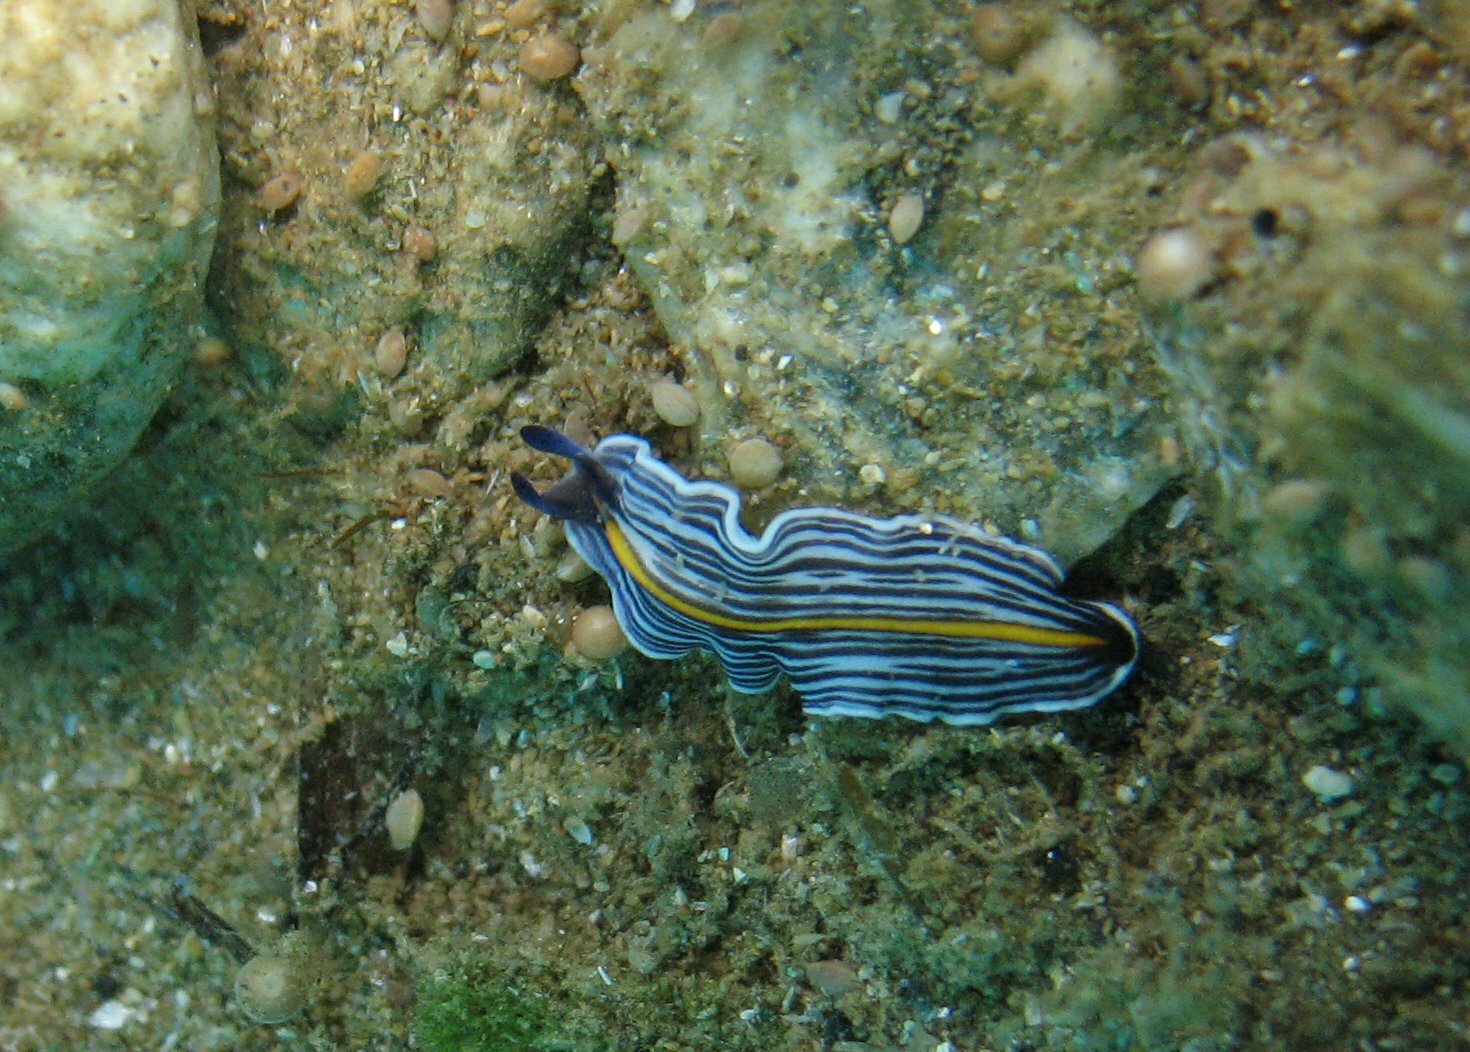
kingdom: Animalia
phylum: Platyhelminthes
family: Euryleptidae
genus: Prostheceraeus
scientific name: Prostheceraeus giesbrechtii
